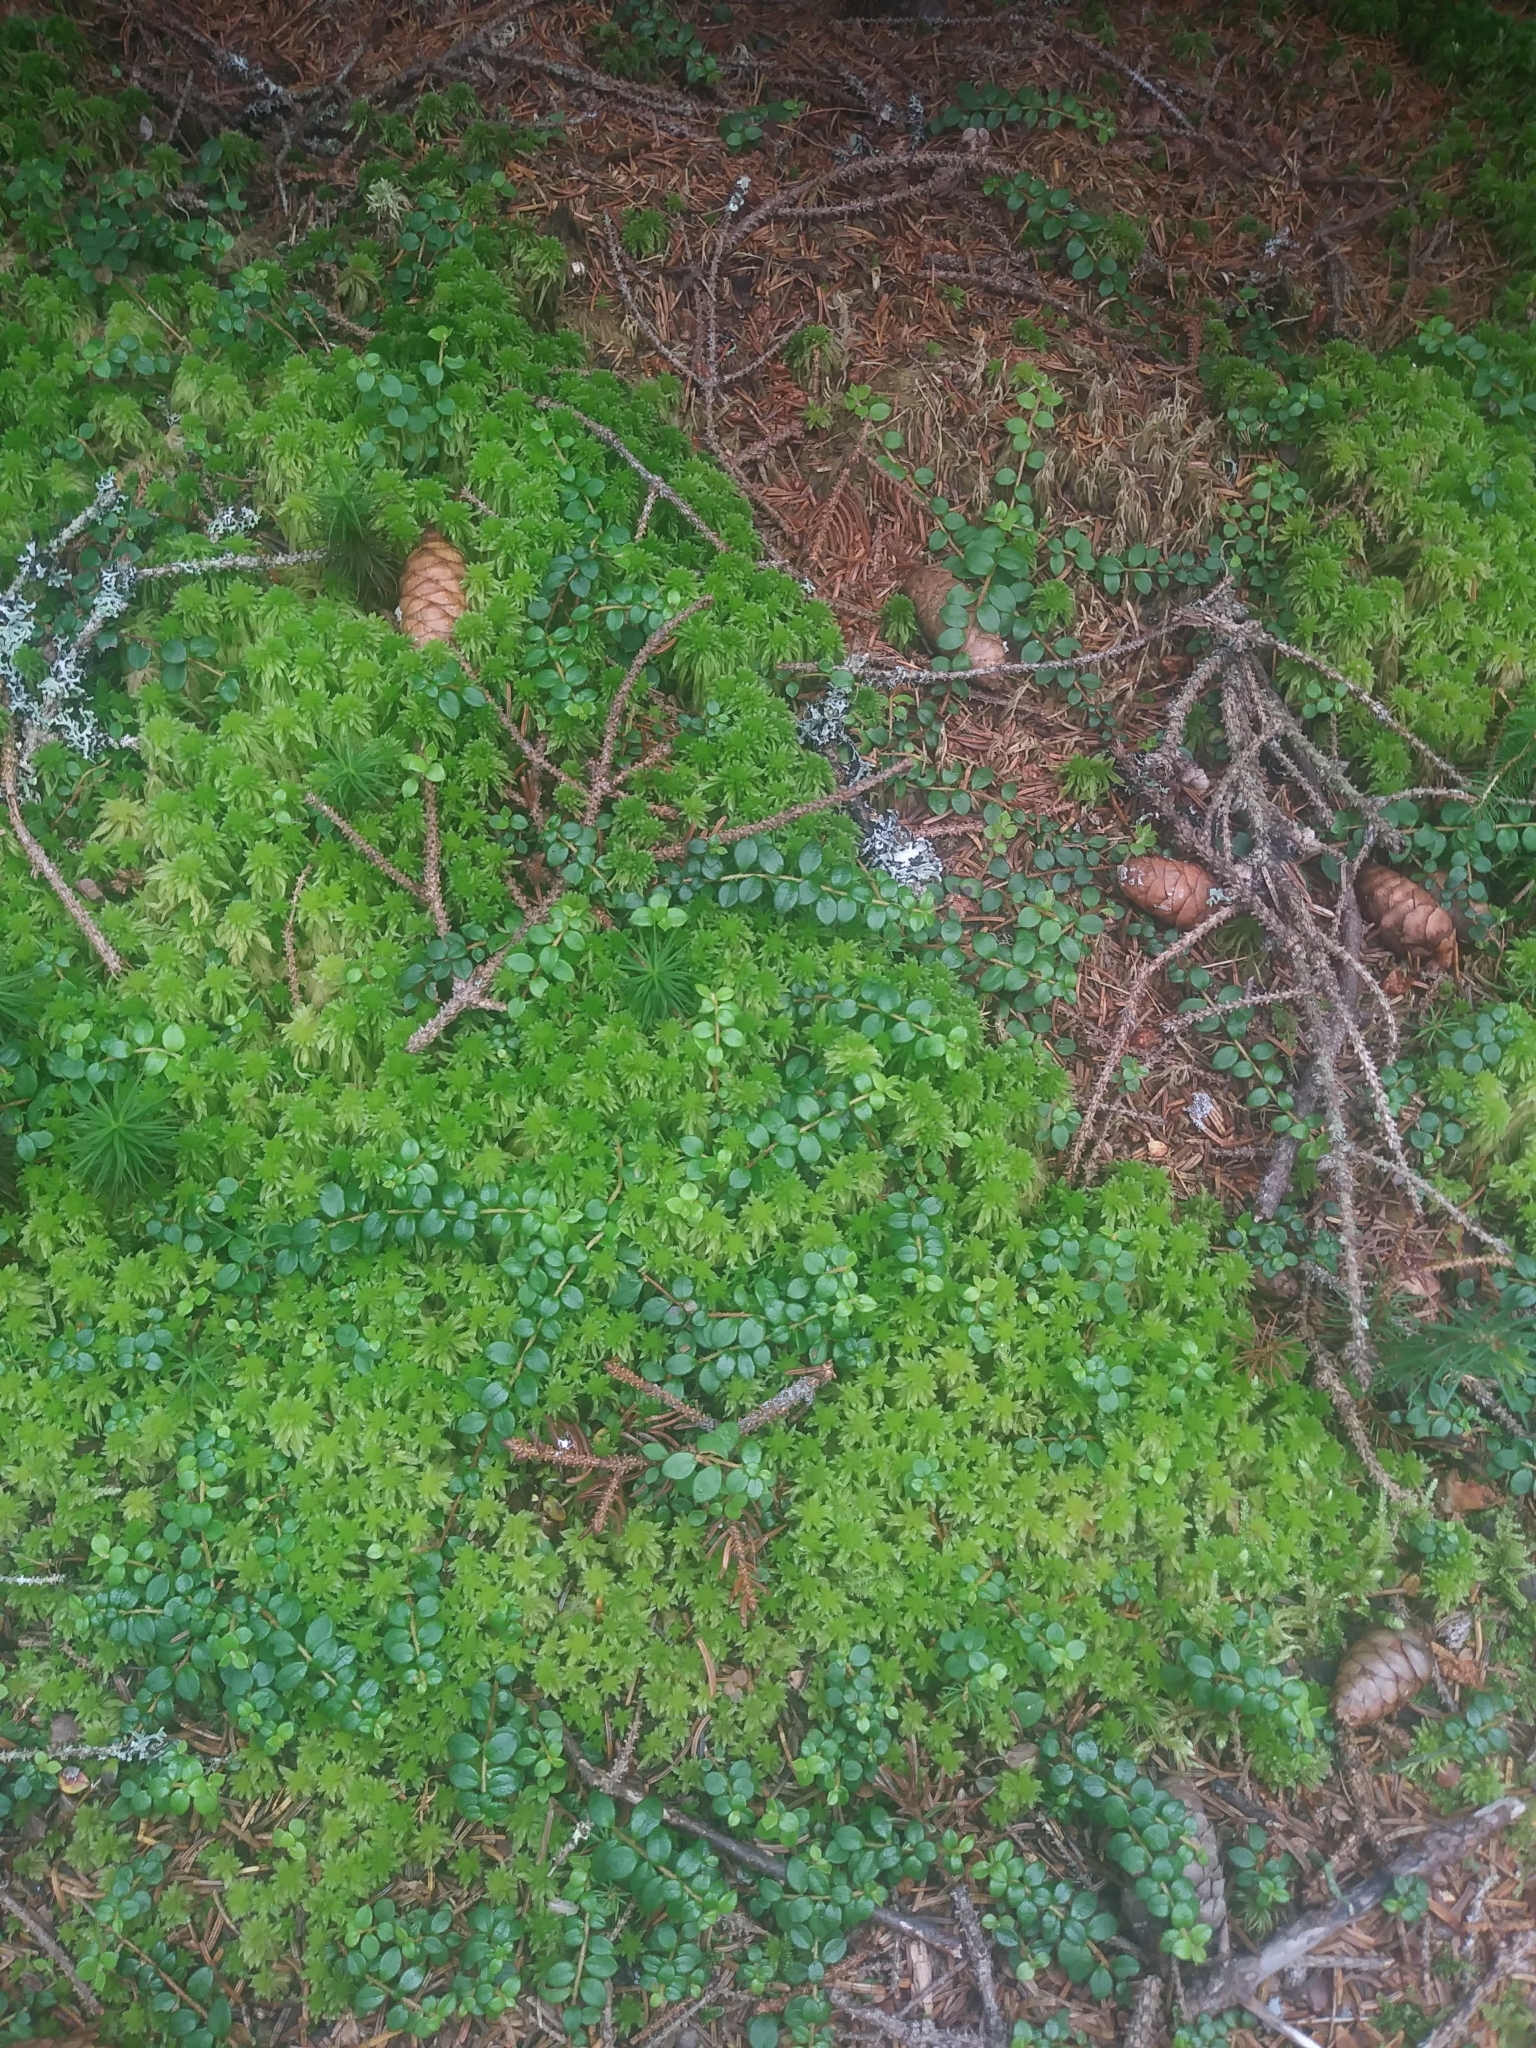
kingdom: Plantae
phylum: Tracheophyta
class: Magnoliopsida
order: Ericales
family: Ericaceae
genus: Gaultheria
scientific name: Gaultheria hispidula
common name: Cancer wintergreen
